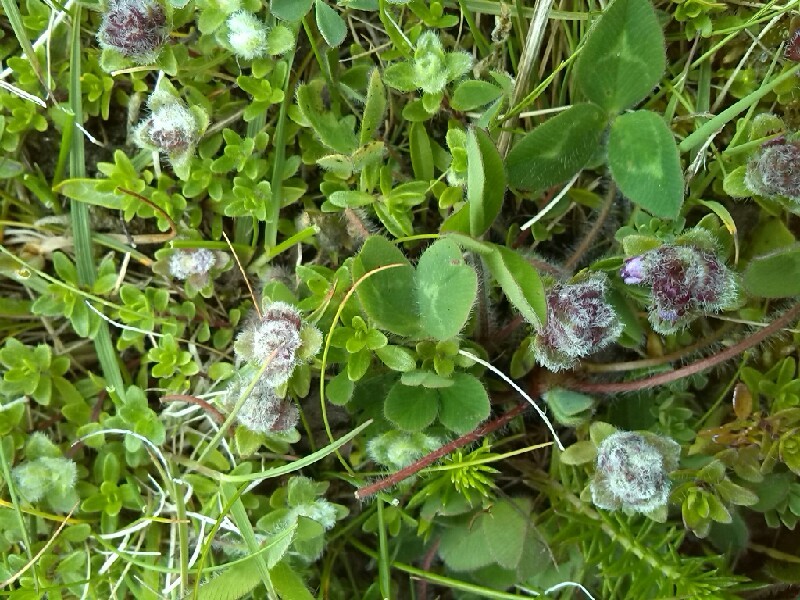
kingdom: Animalia
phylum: Arthropoda
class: Arachnida
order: Trombidiformes
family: Eriophyidae
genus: Aceria
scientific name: Aceria thomasi
